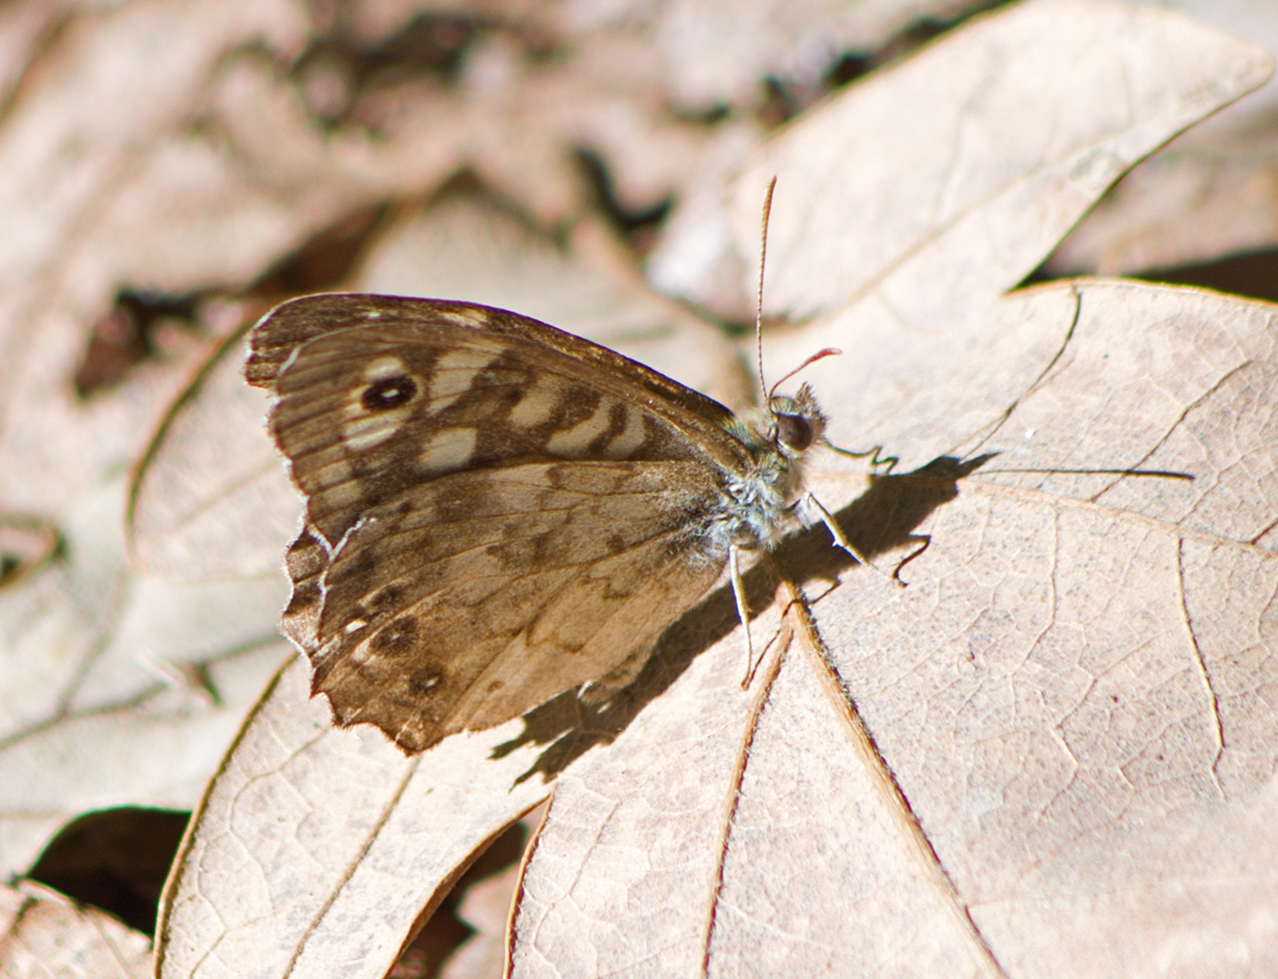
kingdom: Animalia
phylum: Arthropoda
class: Insecta
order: Lepidoptera
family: Nymphalidae
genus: Pararge
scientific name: Pararge aegeria
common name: Speckled wood
